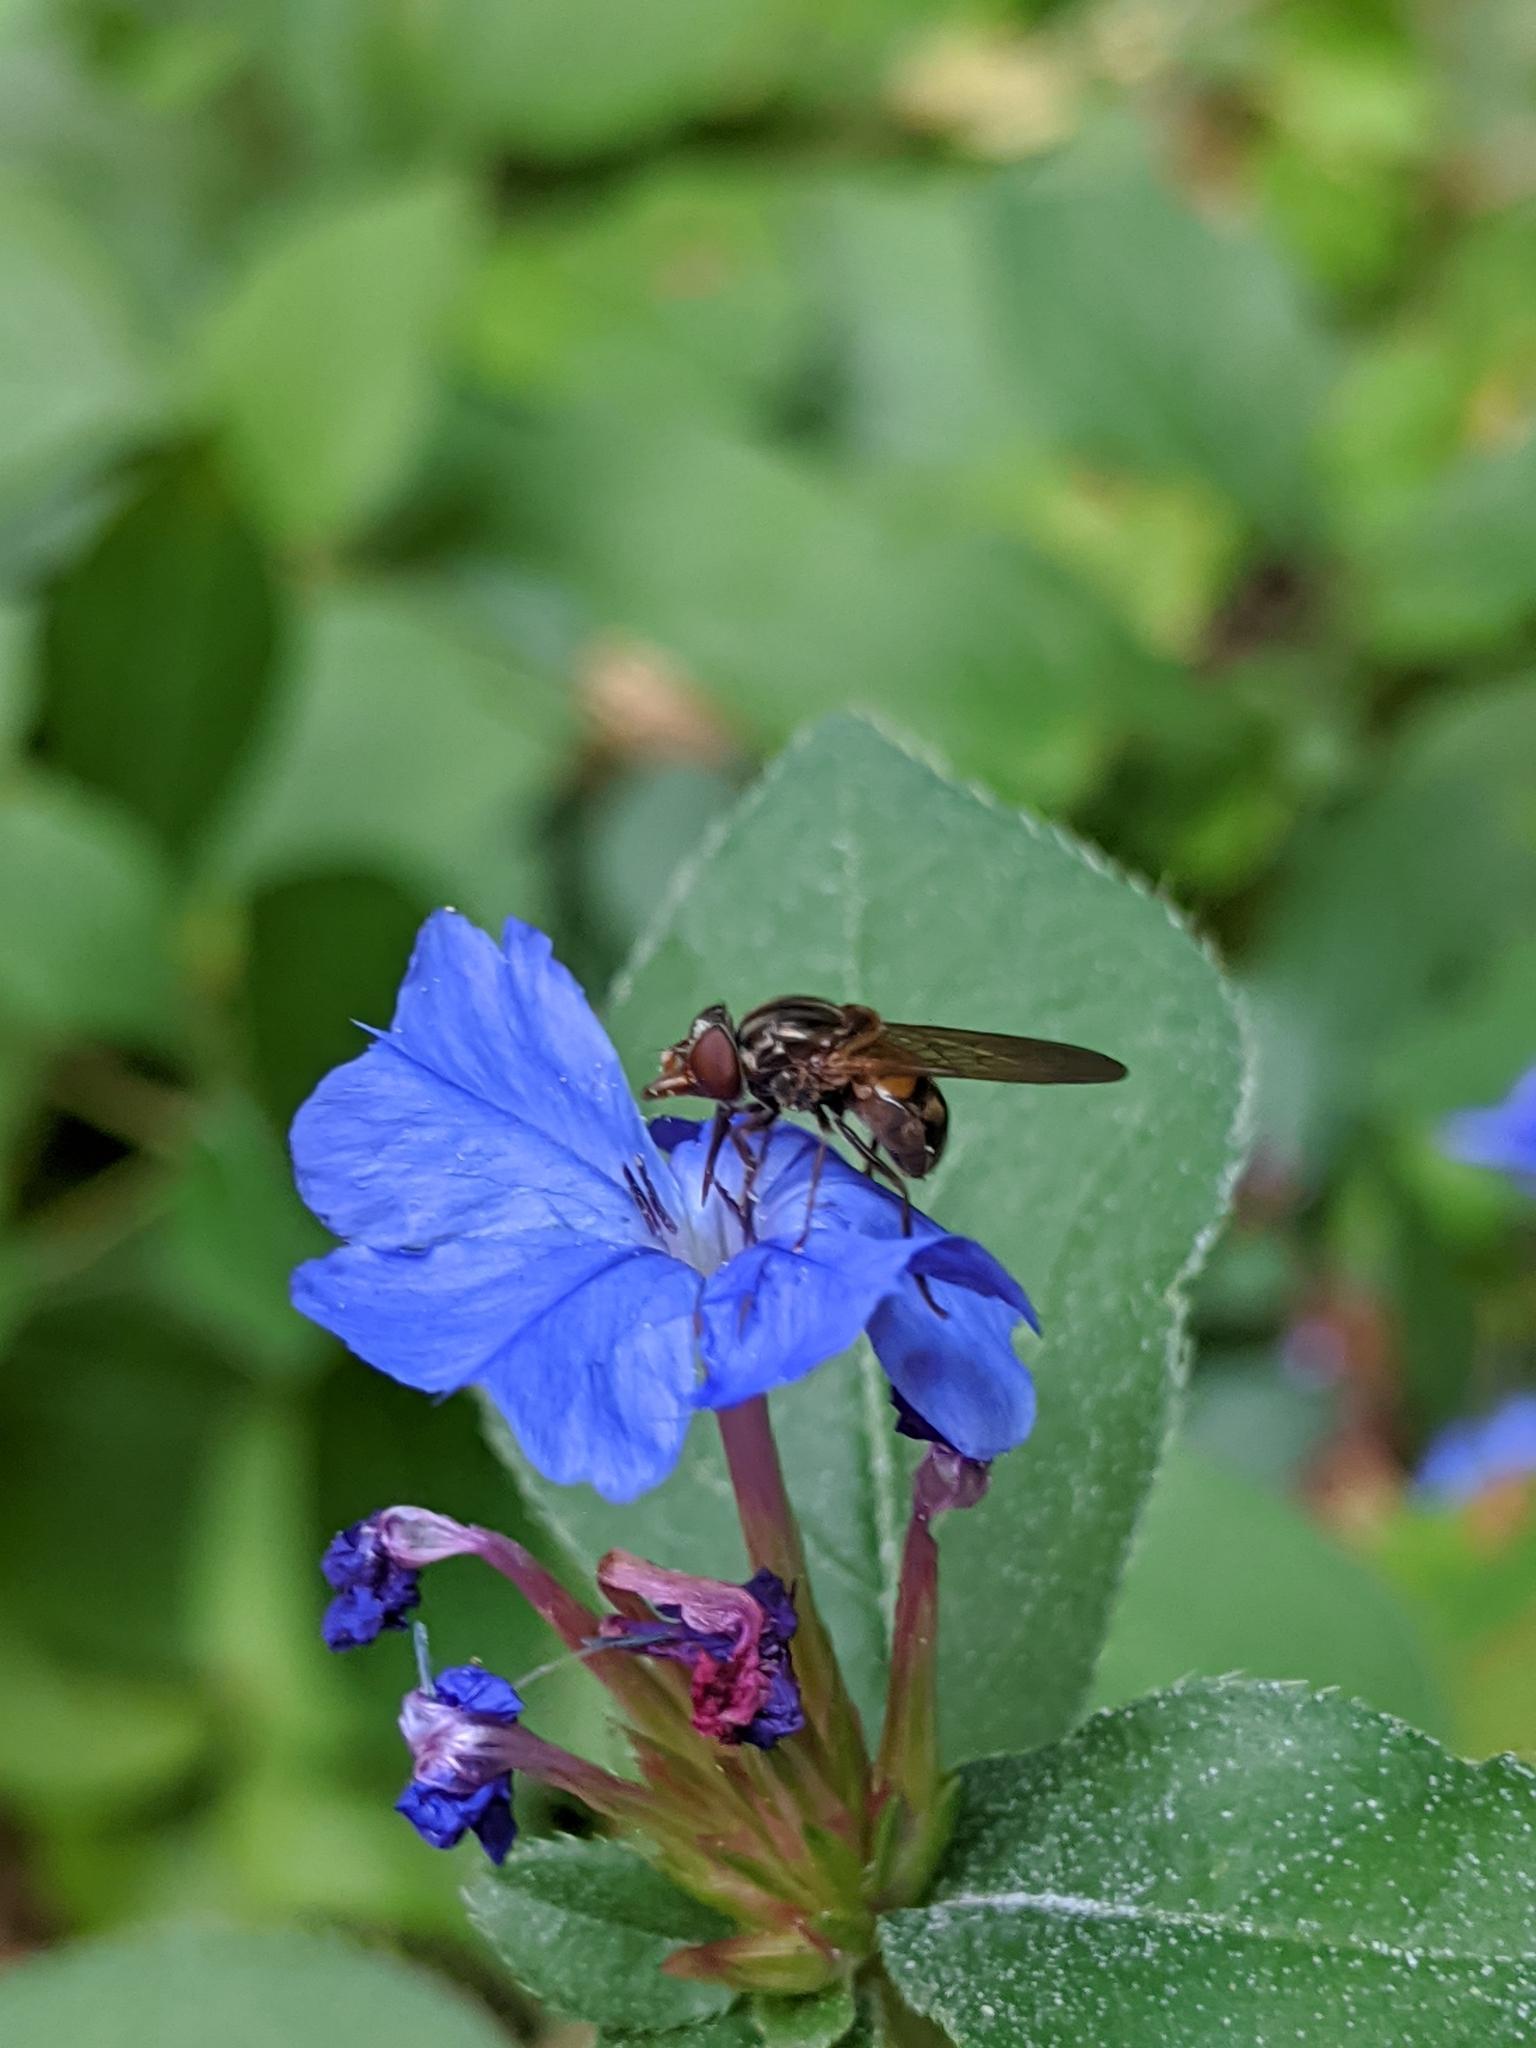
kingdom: Animalia
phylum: Arthropoda
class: Insecta
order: Diptera
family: Syrphidae
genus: Rhingia
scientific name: Rhingia nasica
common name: American snout fly
